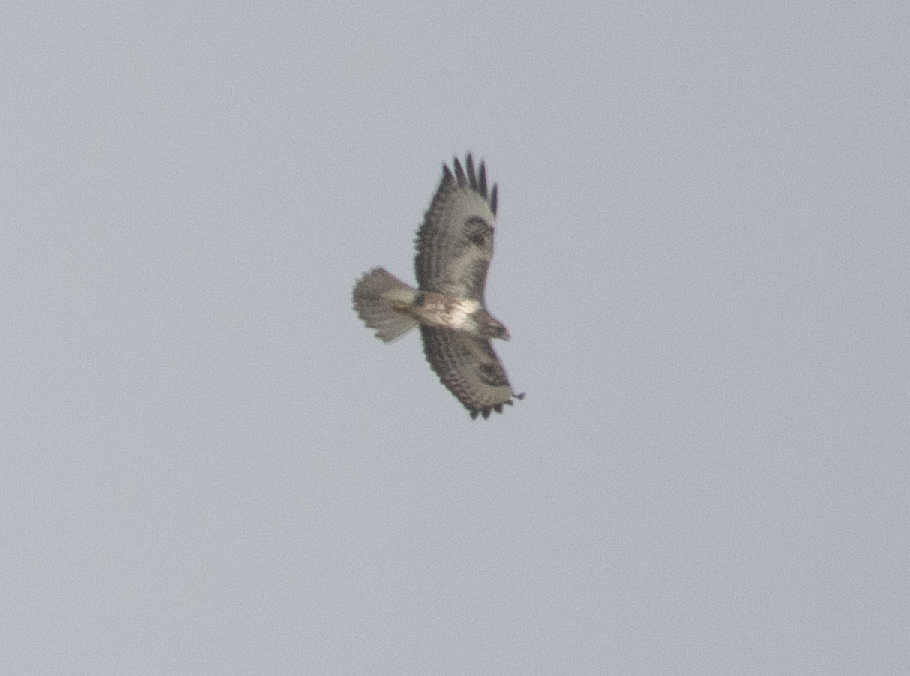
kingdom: Animalia
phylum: Chordata
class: Aves
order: Accipitriformes
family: Accipitridae
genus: Buteo
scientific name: Buteo buteo
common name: Common buzzard
